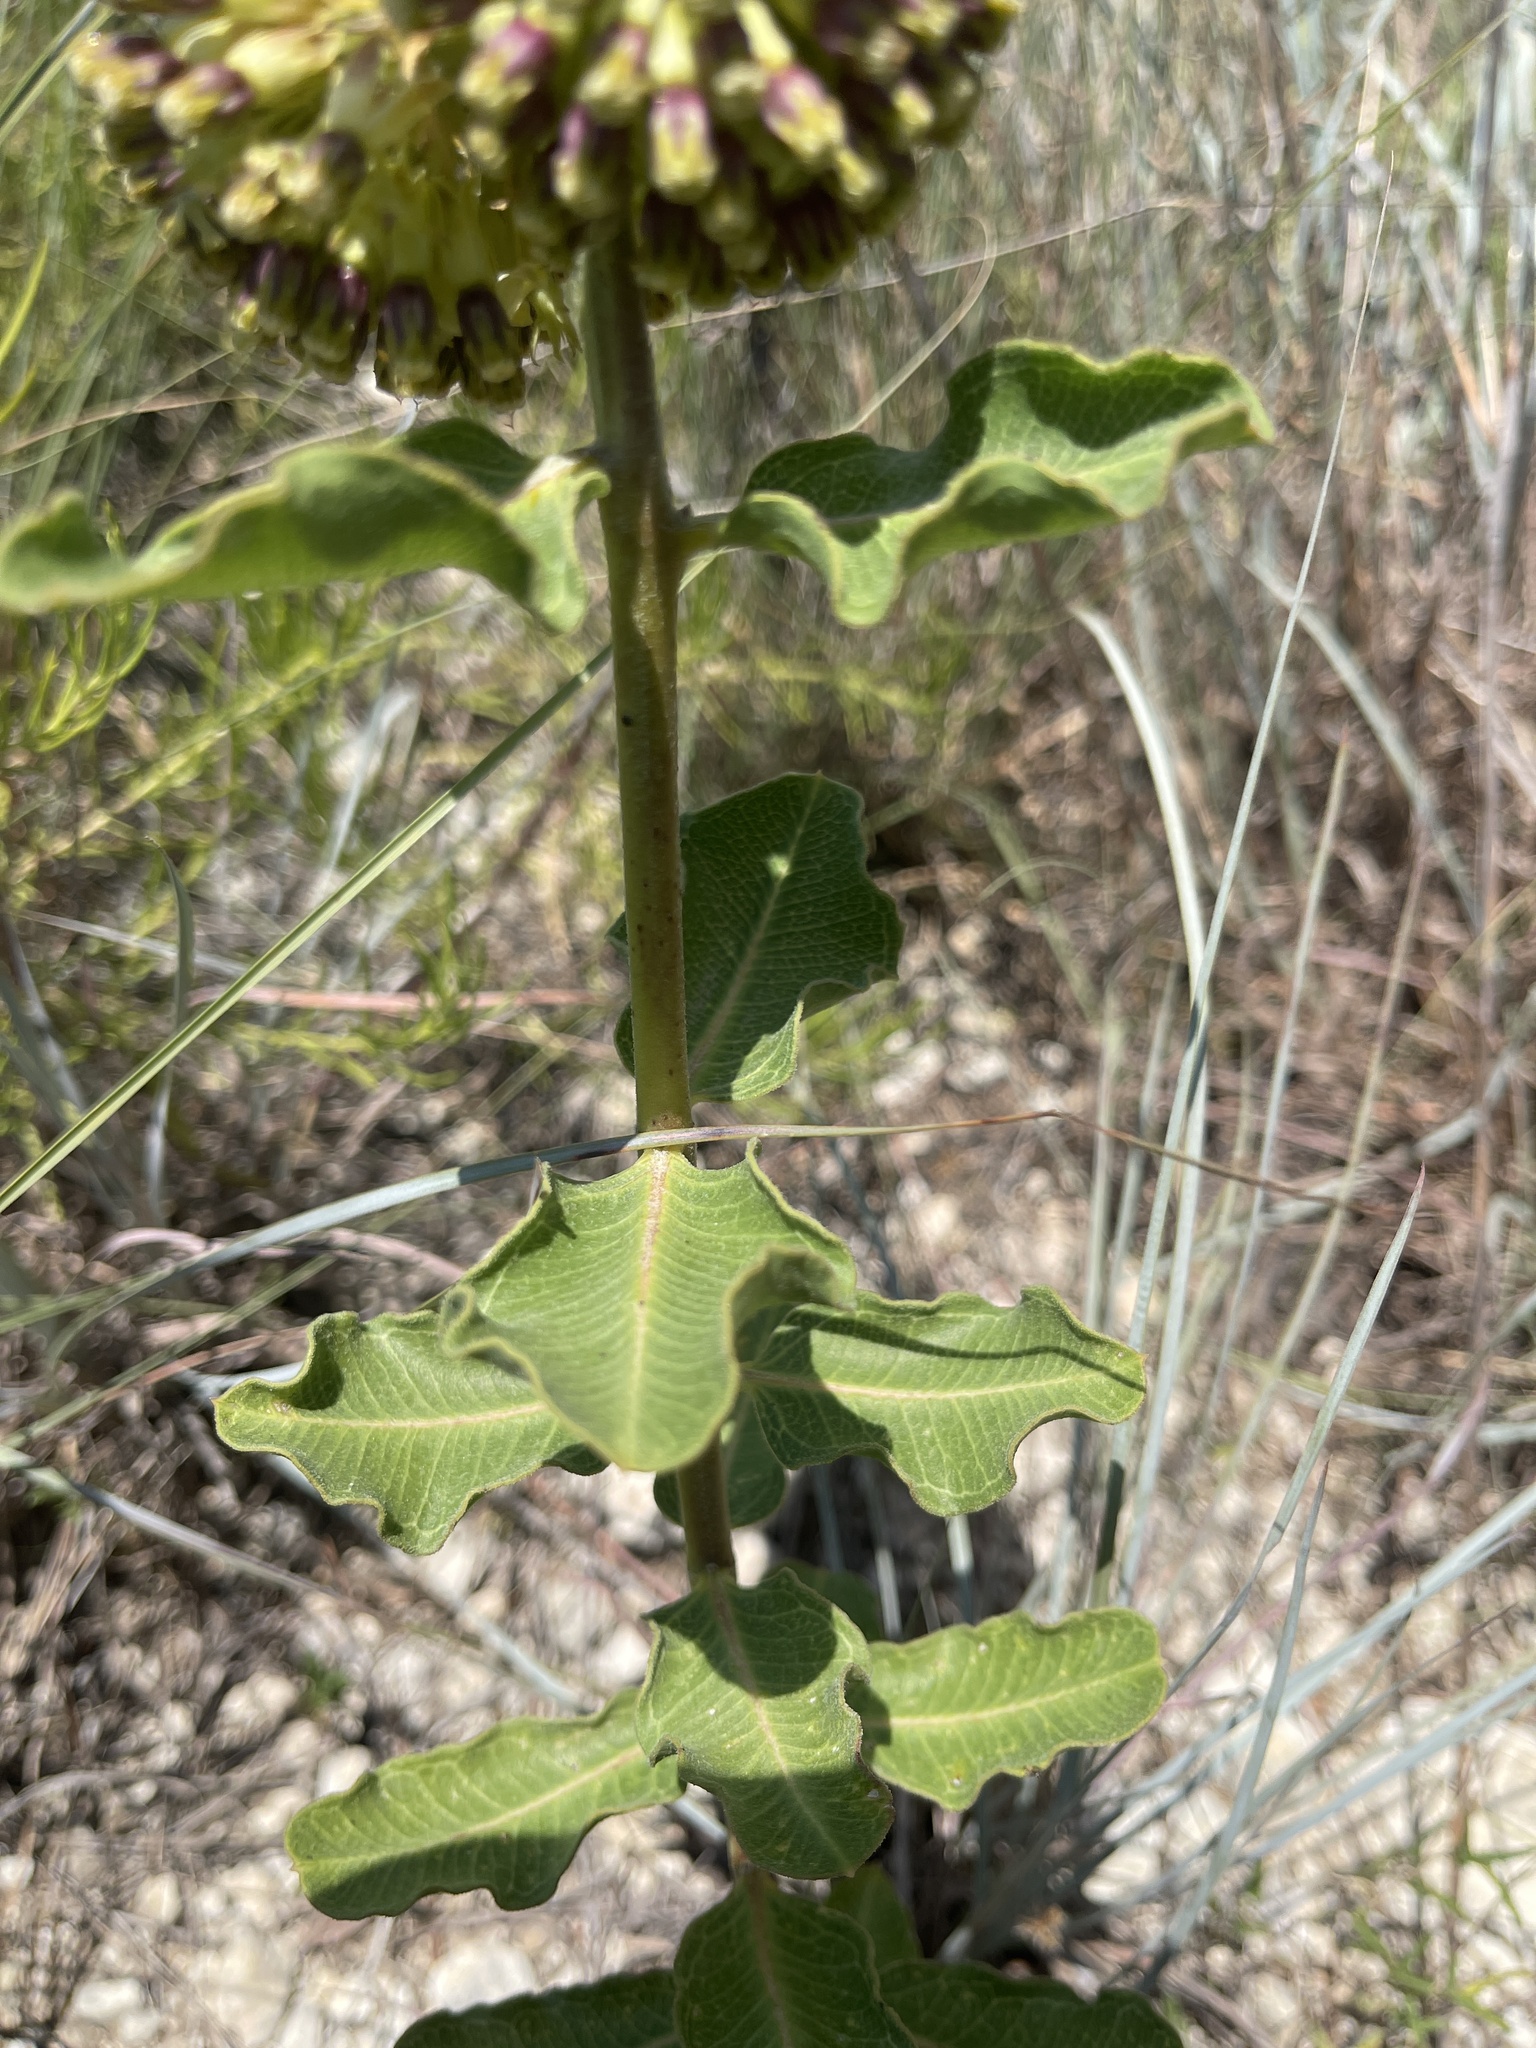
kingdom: Plantae
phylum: Tracheophyta
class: Magnoliopsida
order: Gentianales
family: Apocynaceae
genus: Asclepias
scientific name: Asclepias viridiflora
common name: Green comet milkweed
